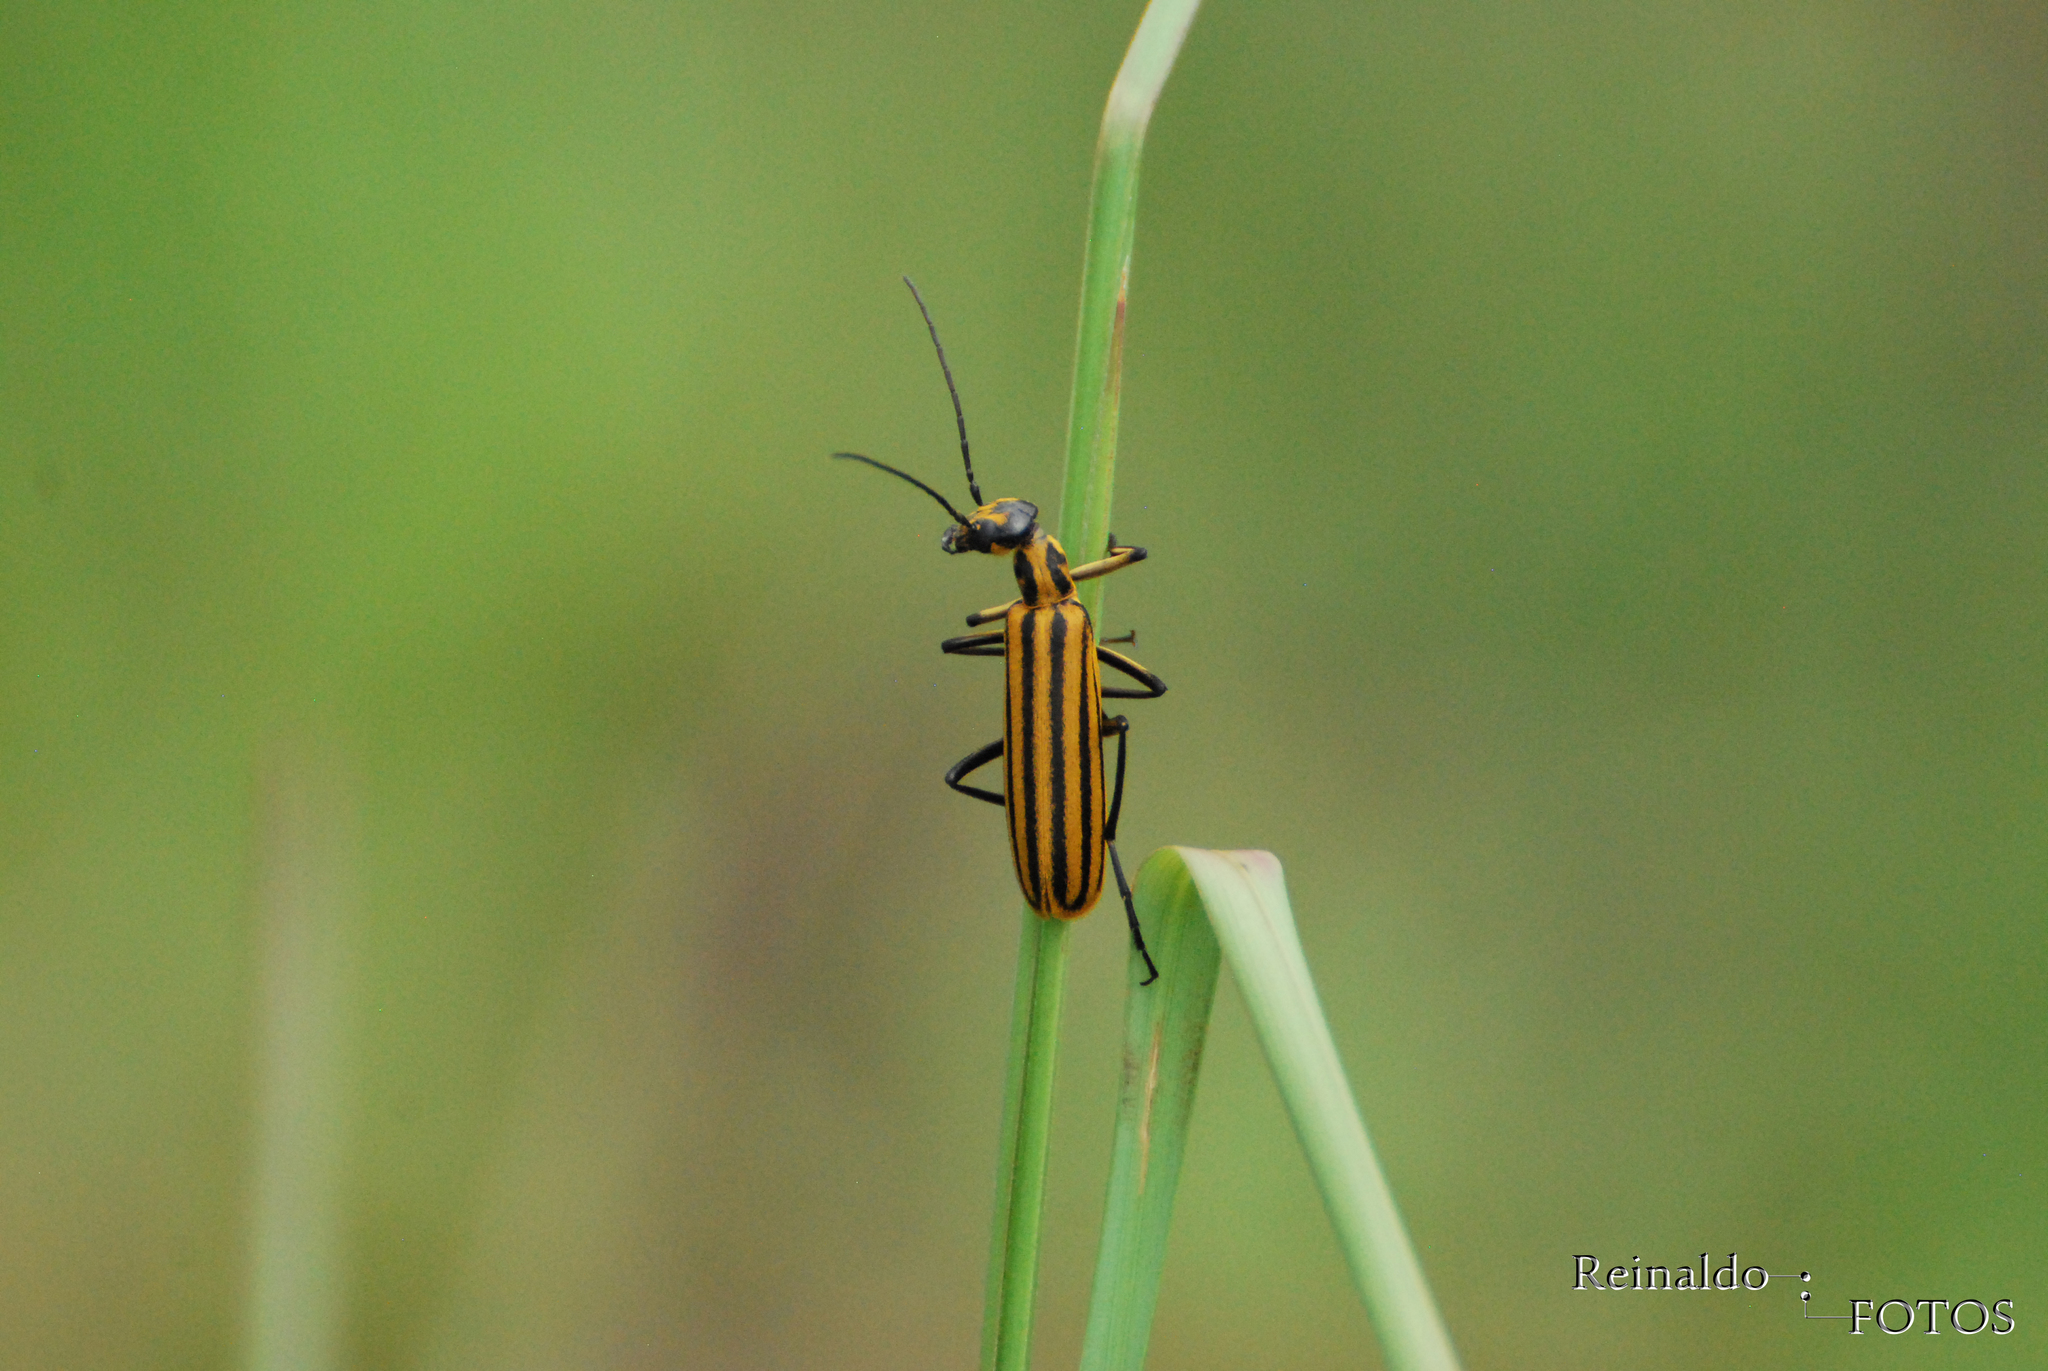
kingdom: Animalia
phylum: Arthropoda
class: Insecta
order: Coleoptera
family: Meloidae
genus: Epicauta
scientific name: Epicauta excavata
